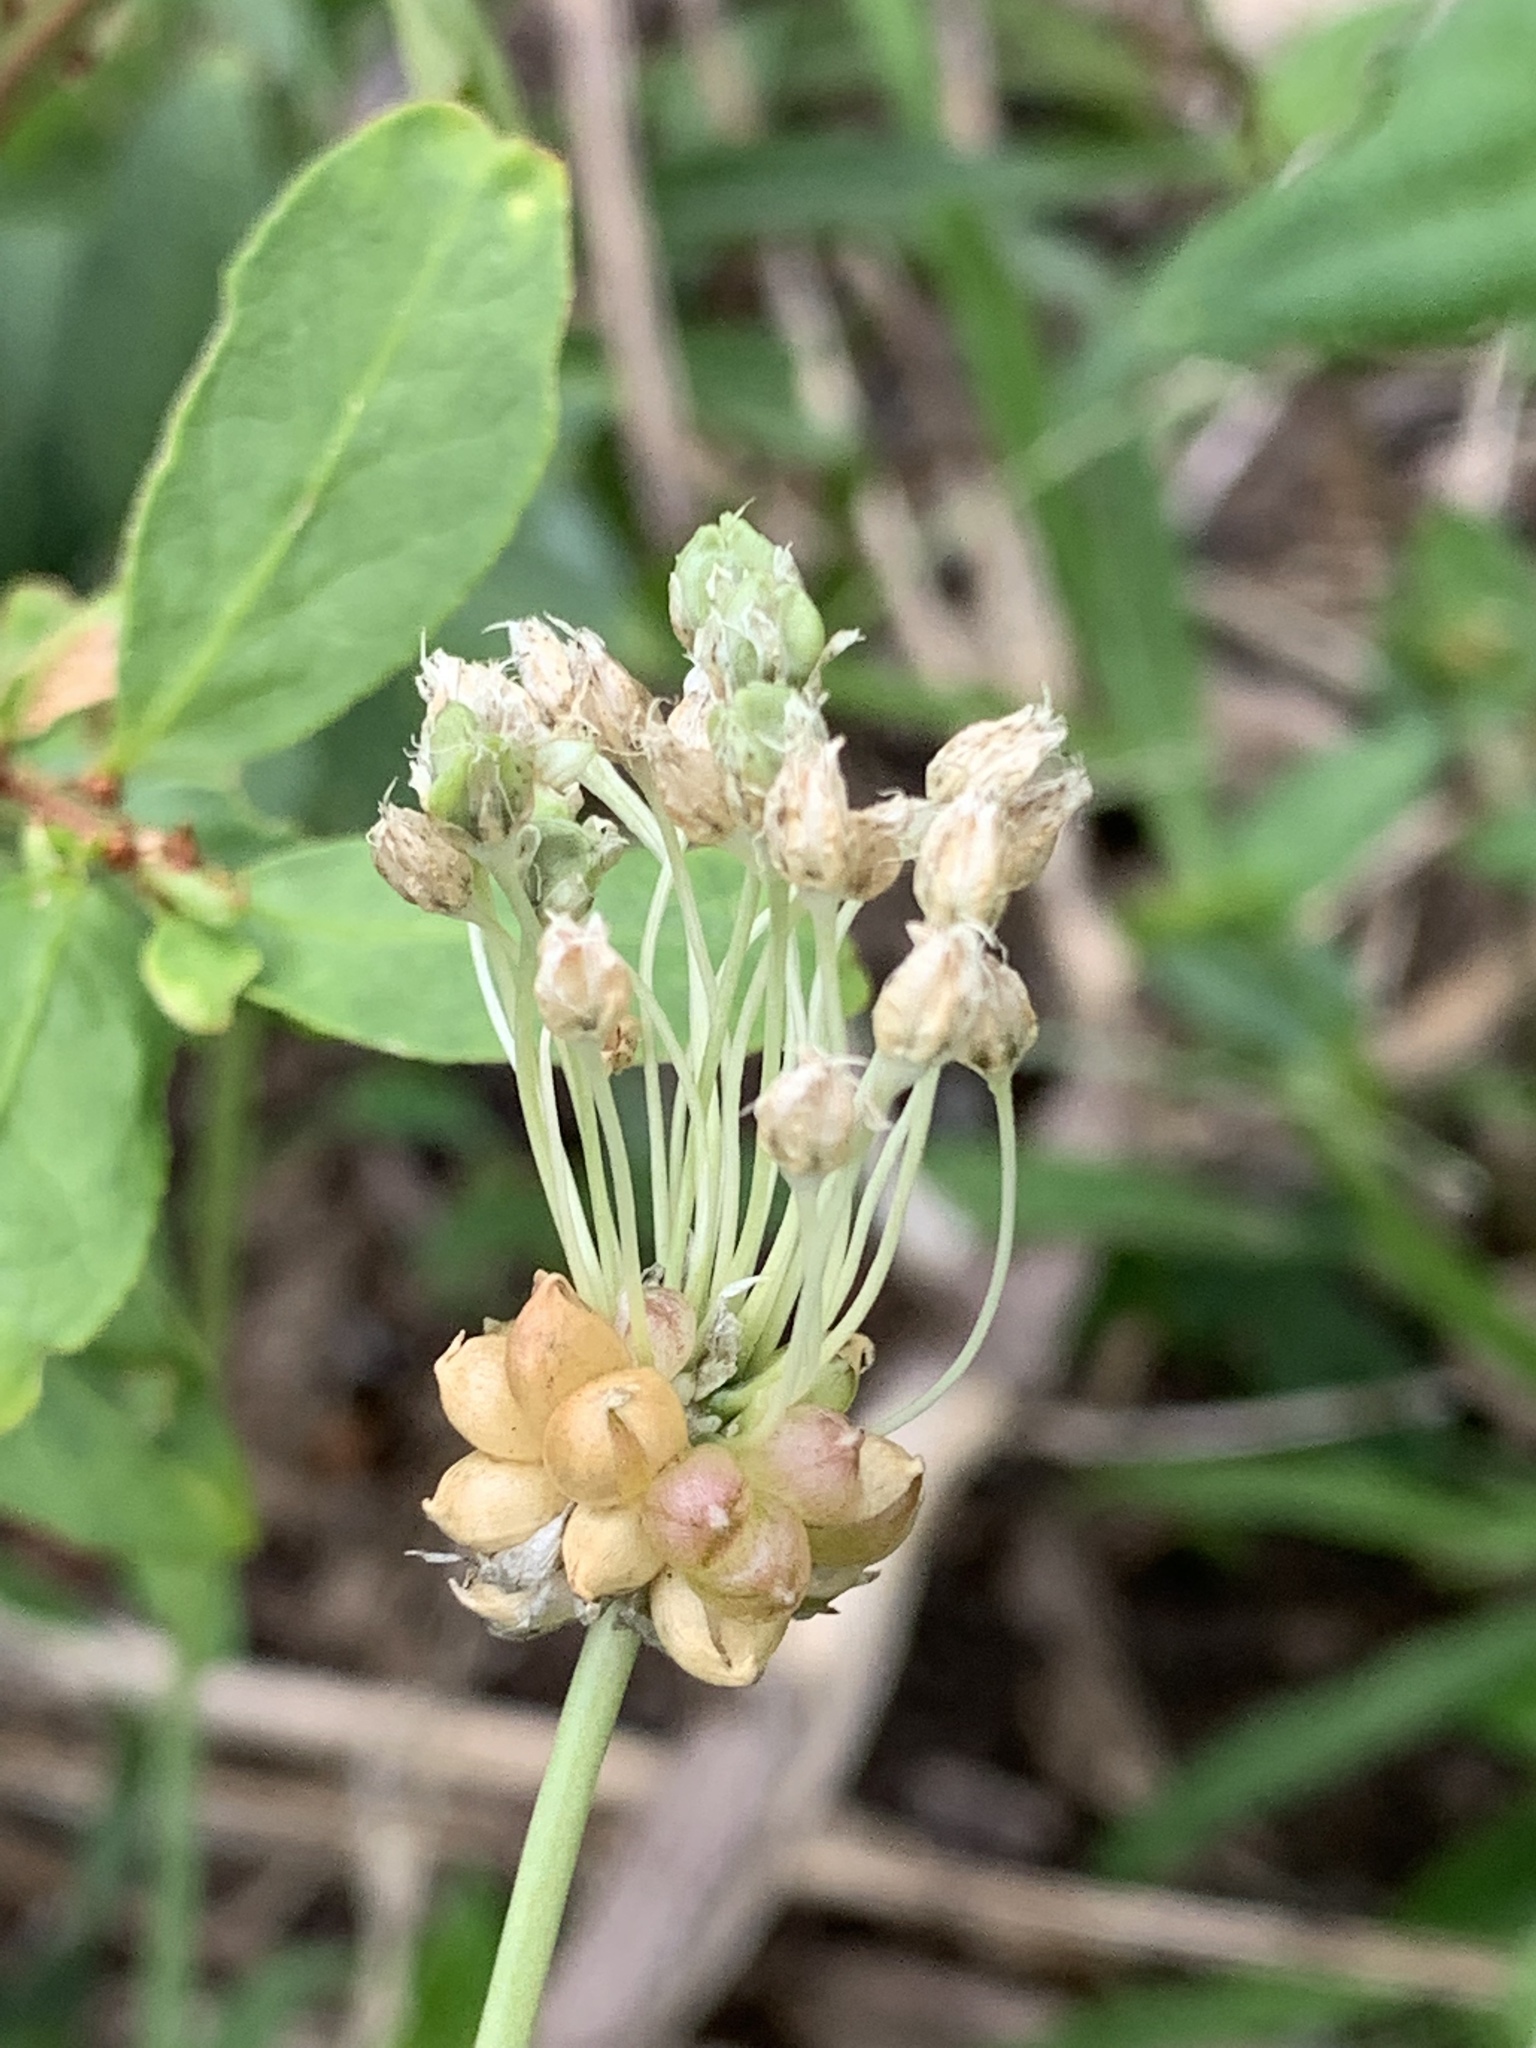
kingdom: Plantae
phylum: Tracheophyta
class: Liliopsida
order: Asparagales
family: Amaryllidaceae
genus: Allium
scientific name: Allium vineale
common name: Crow garlic
